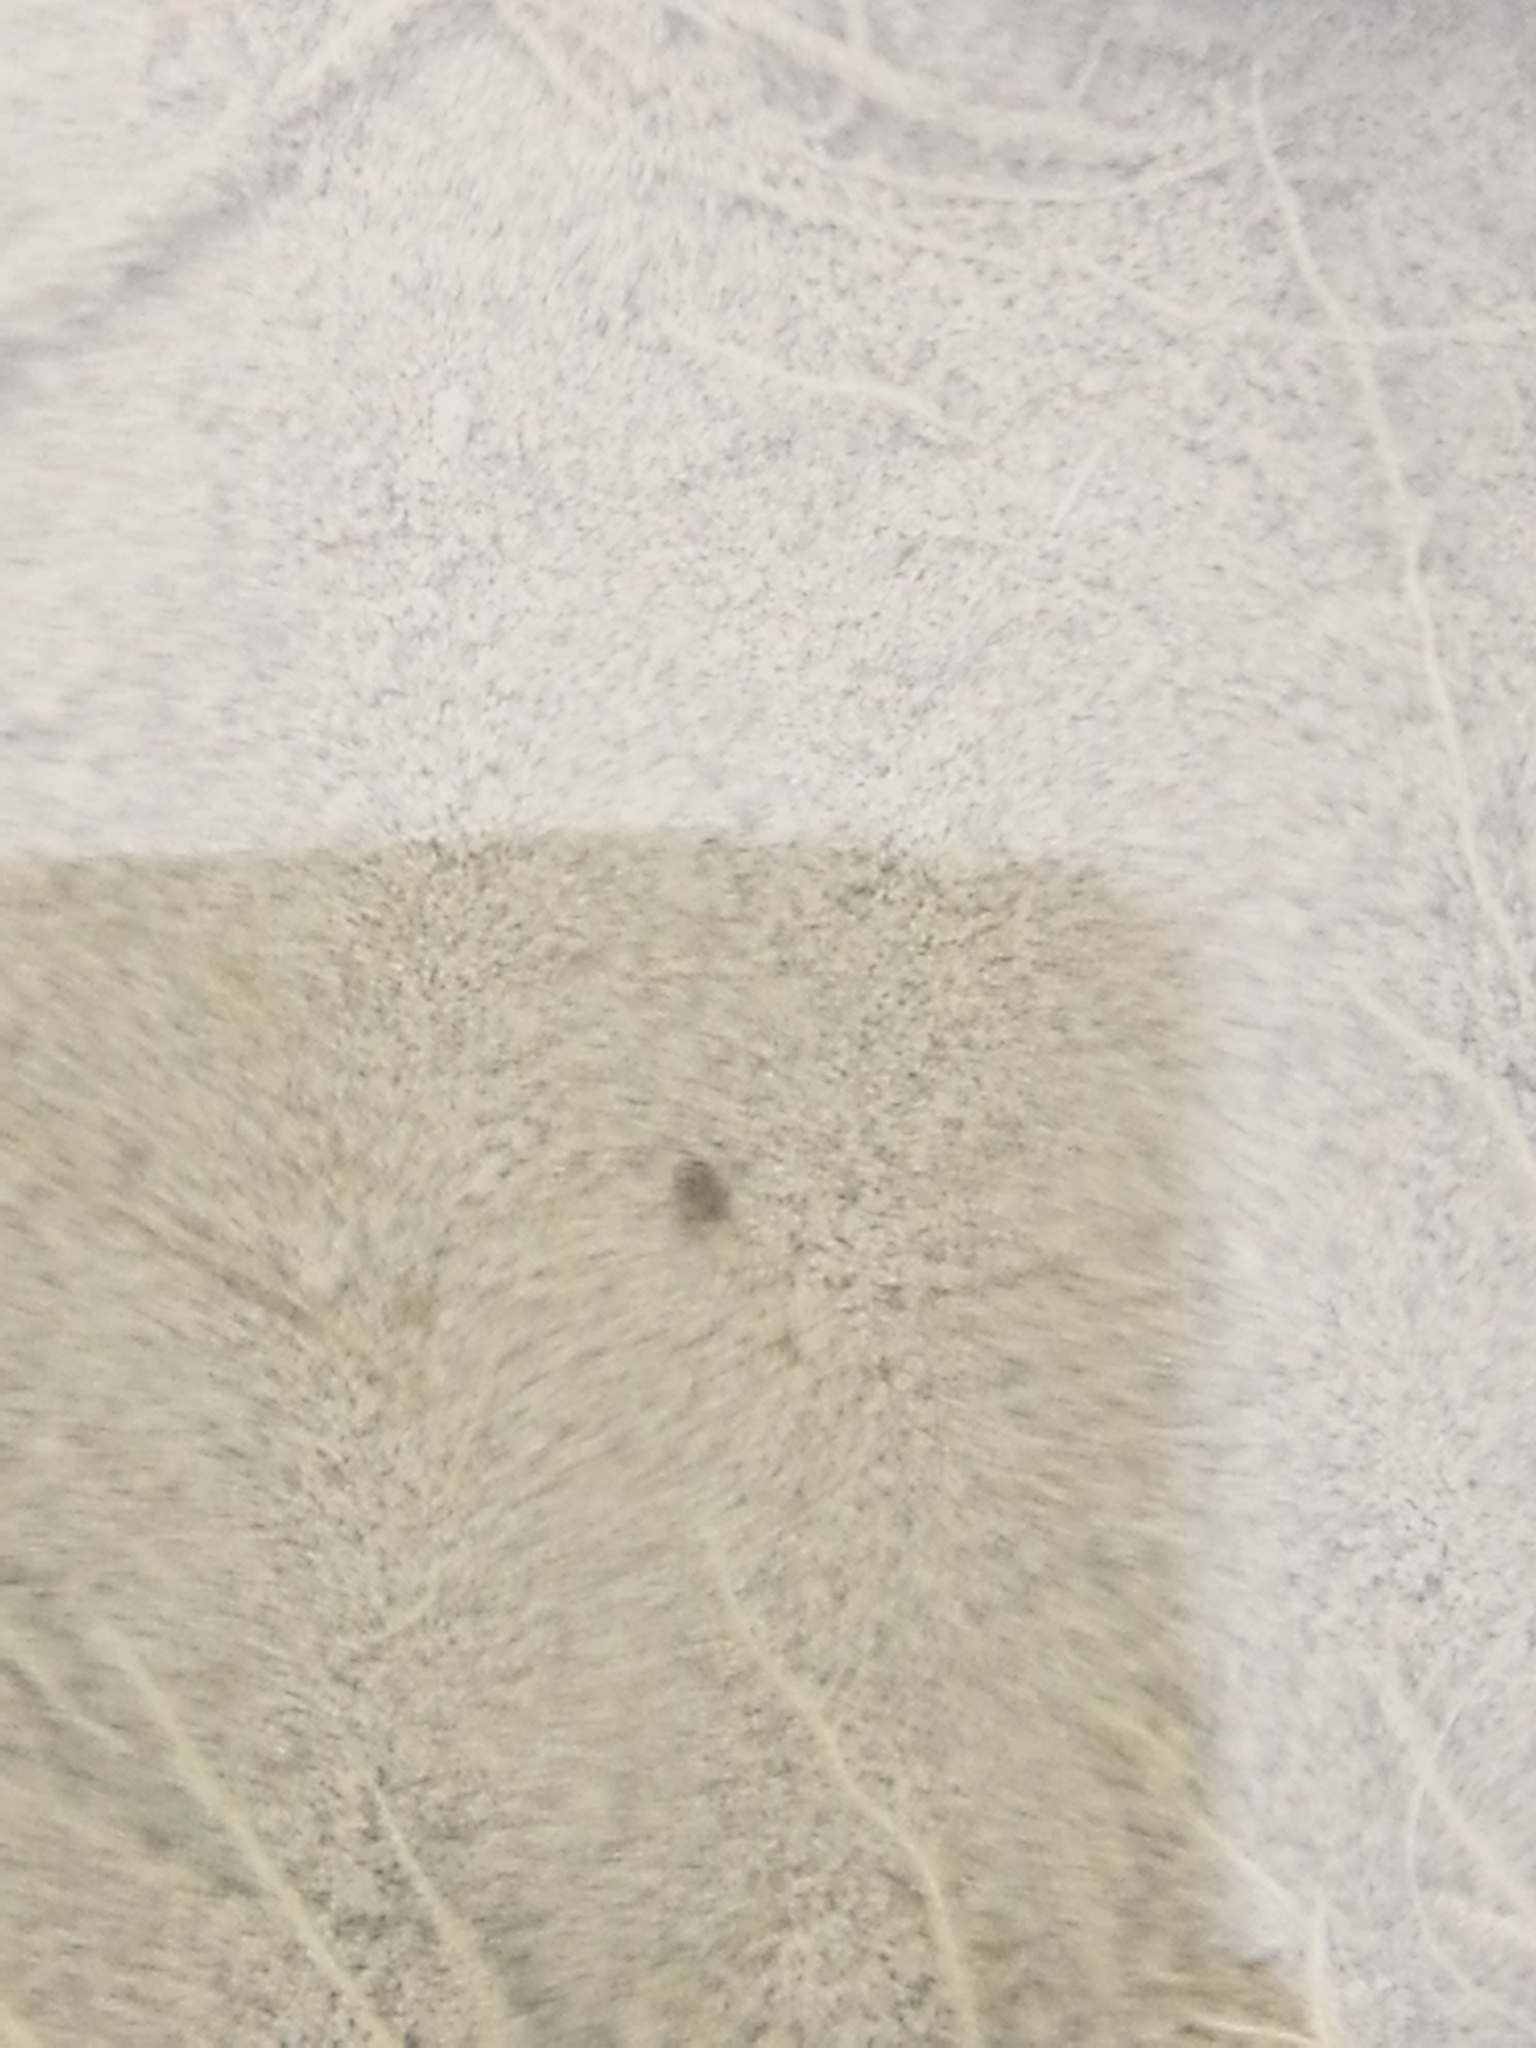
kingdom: Animalia
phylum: Arthropoda
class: Insecta
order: Coleoptera
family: Dytiscidae
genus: Huxelhydrus
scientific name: Huxelhydrus syntheticus
